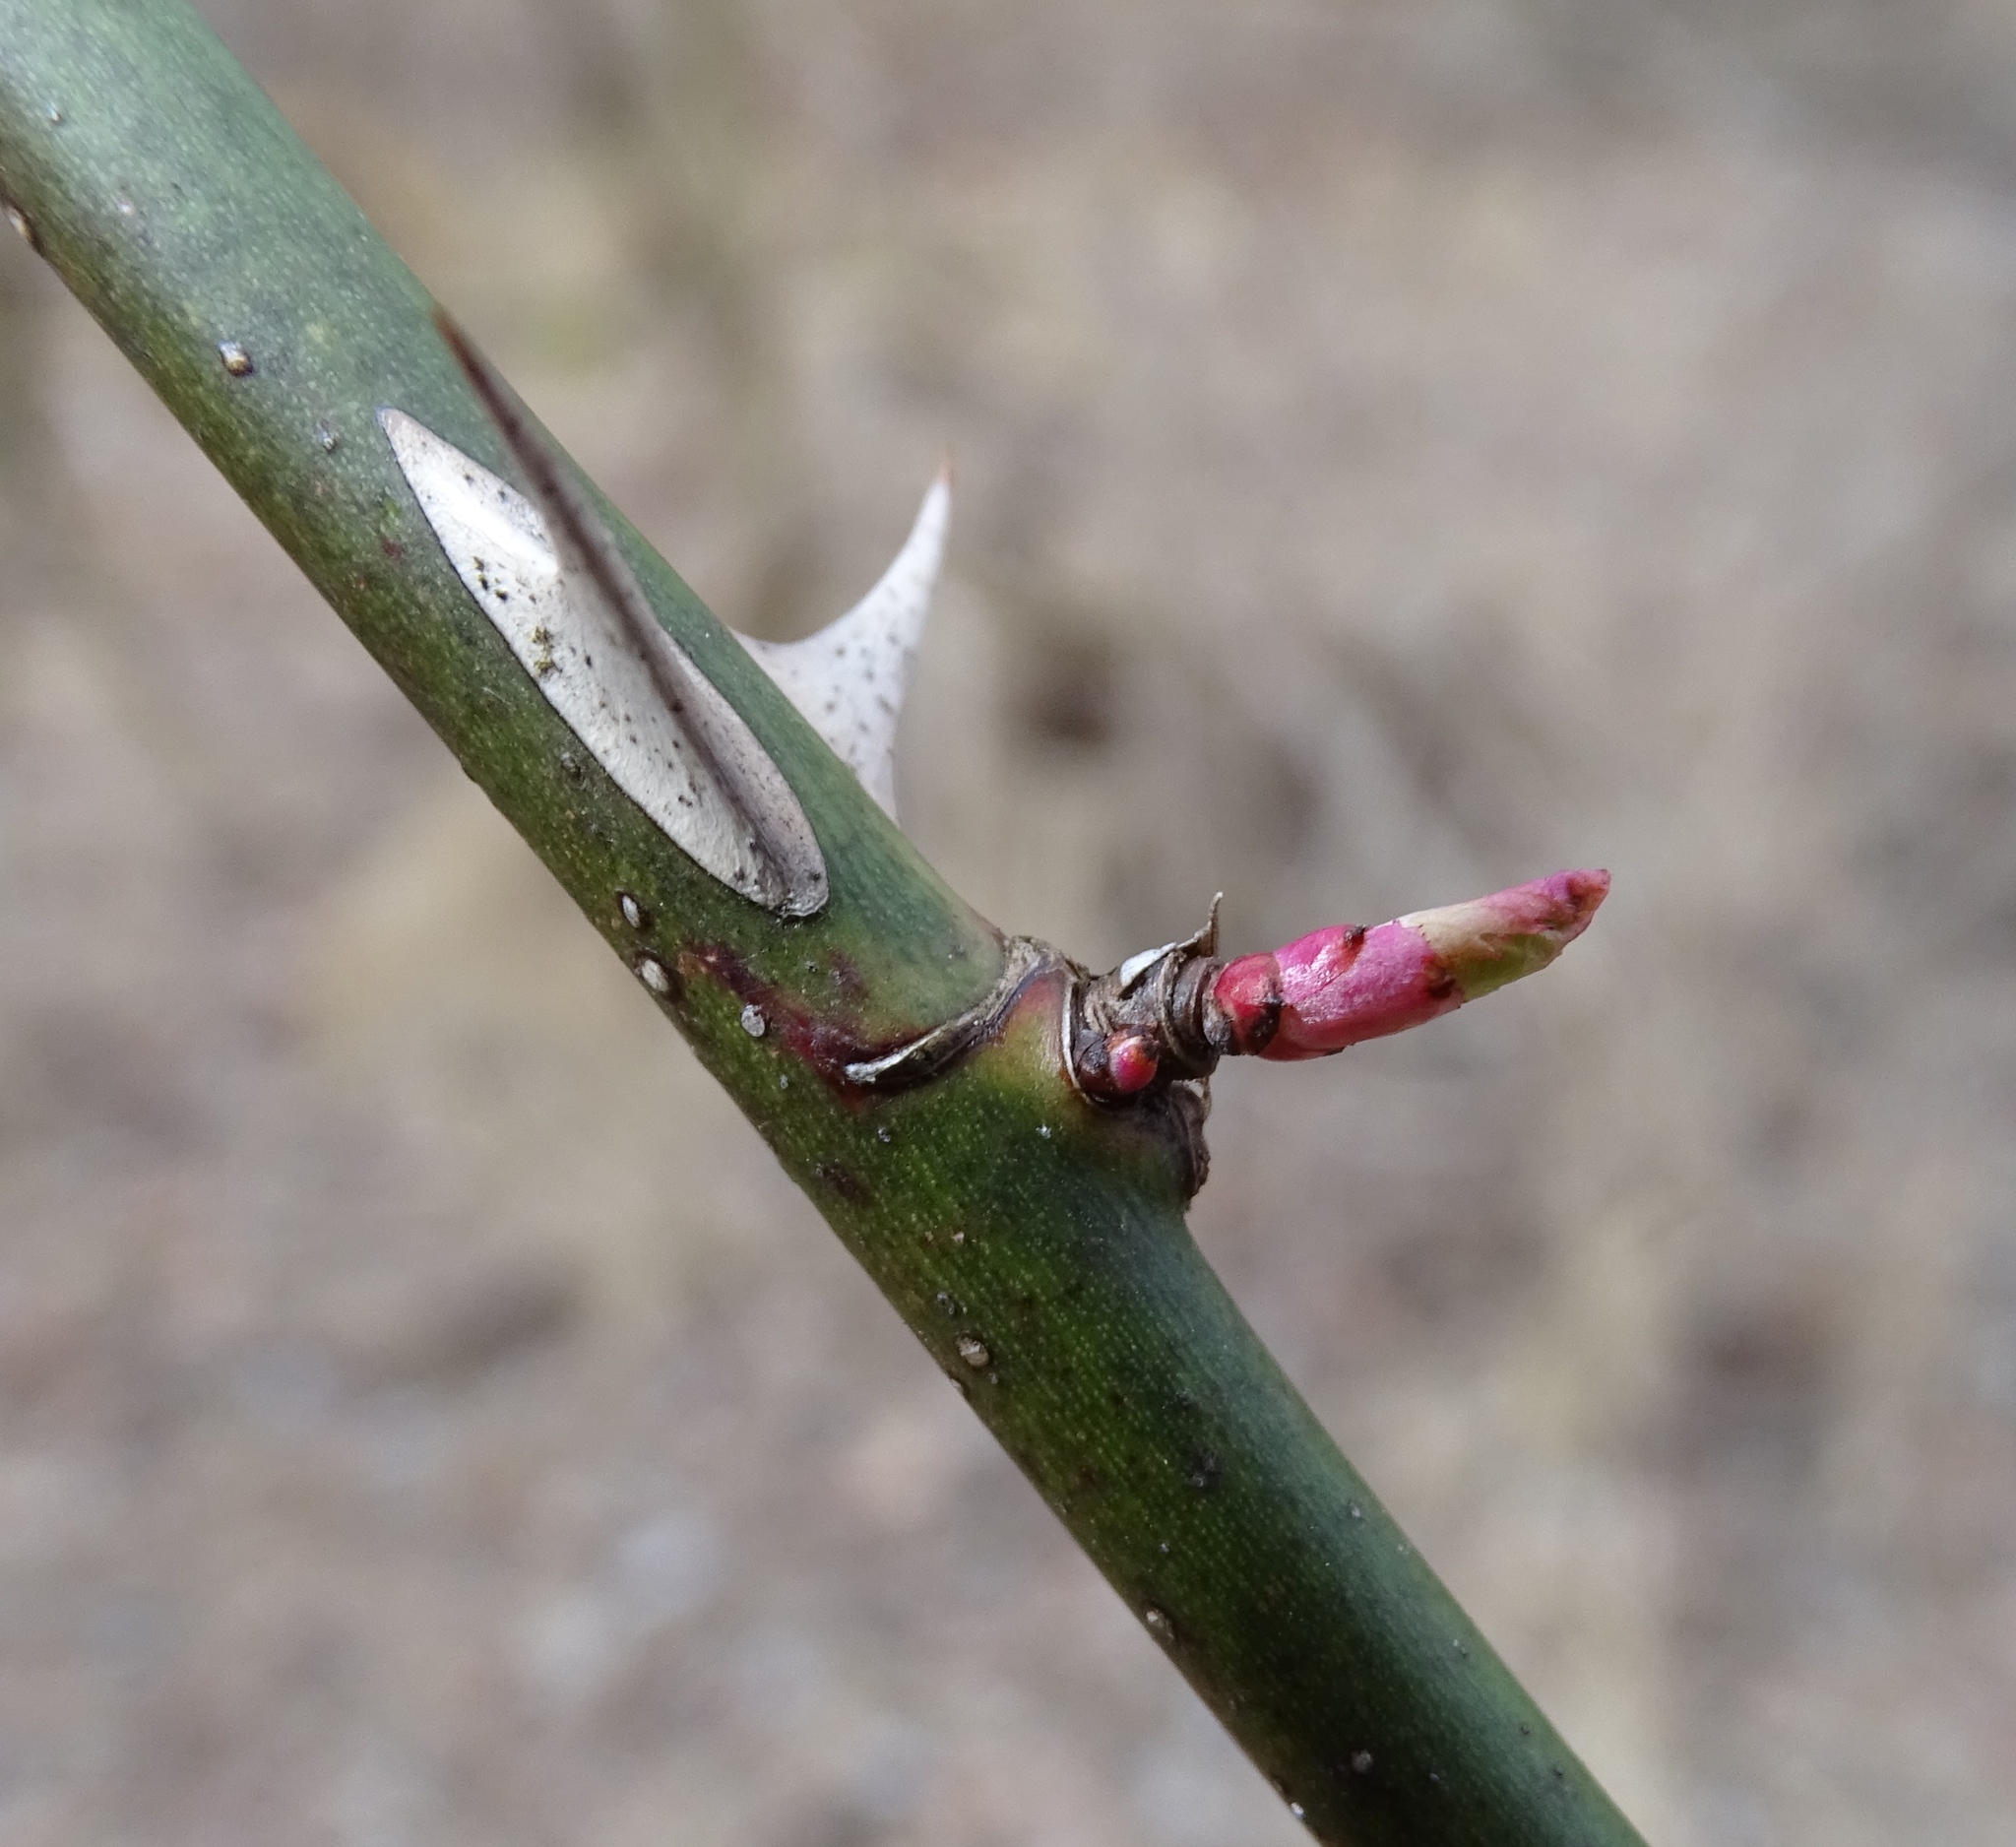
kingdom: Plantae
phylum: Tracheophyta
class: Magnoliopsida
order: Rosales
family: Rosaceae
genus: Rosa
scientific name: Rosa multiflora
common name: Multiflora rose
